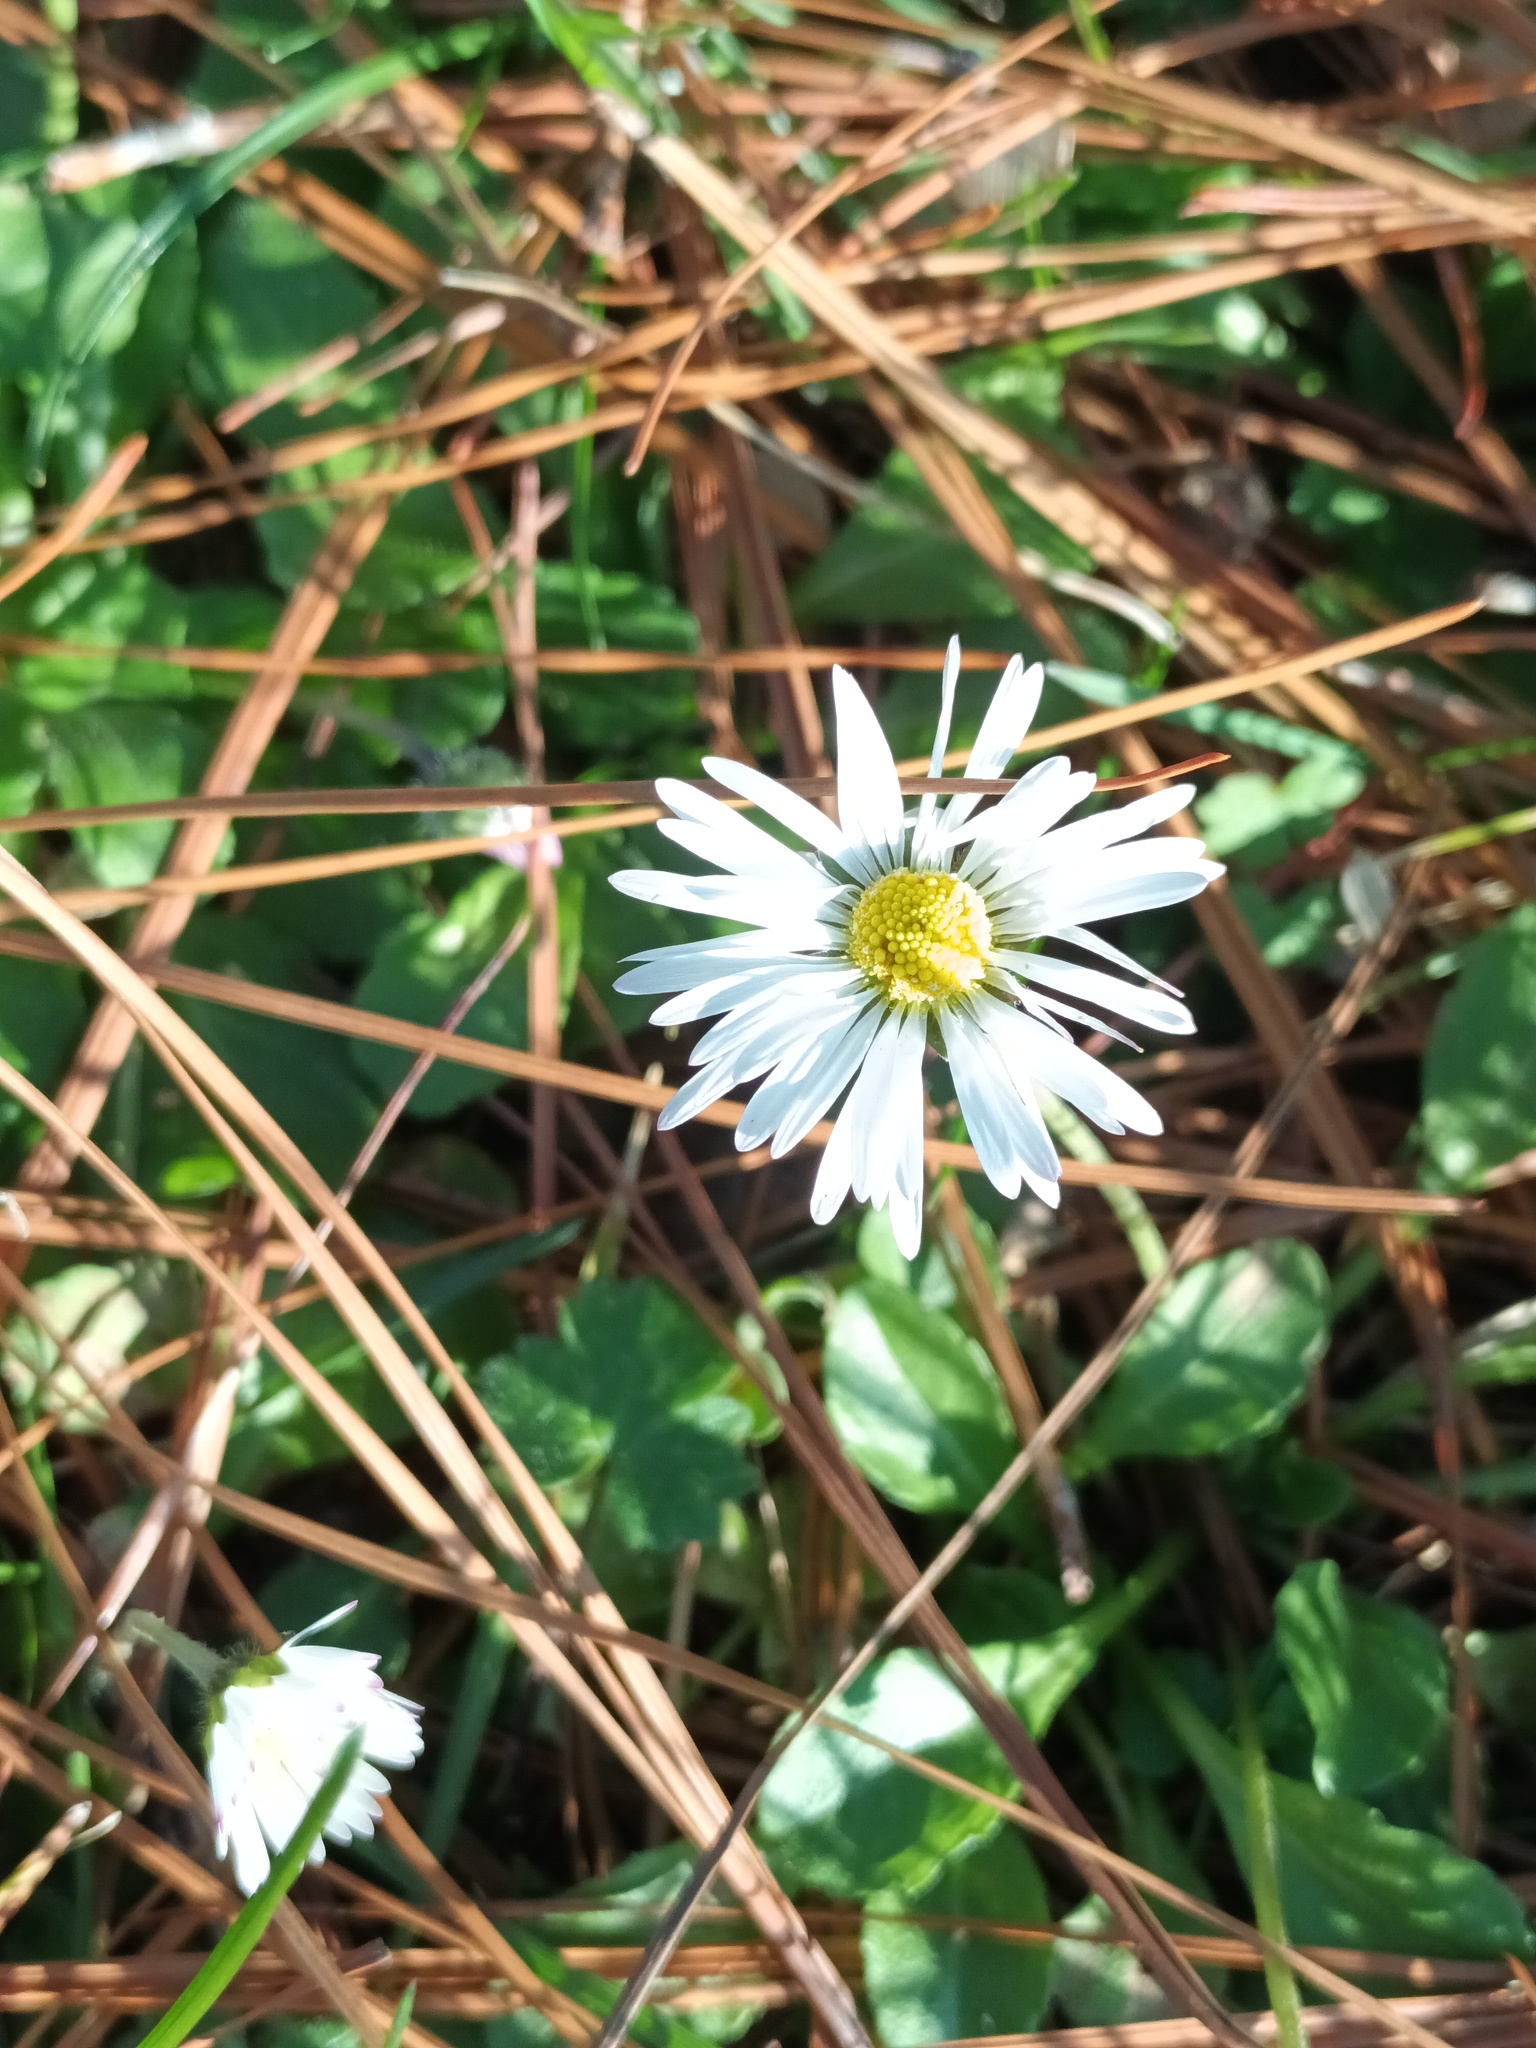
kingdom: Plantae
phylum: Tracheophyta
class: Magnoliopsida
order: Asterales
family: Asteraceae
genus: Bellis
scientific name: Bellis perennis
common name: Lawndaisy
